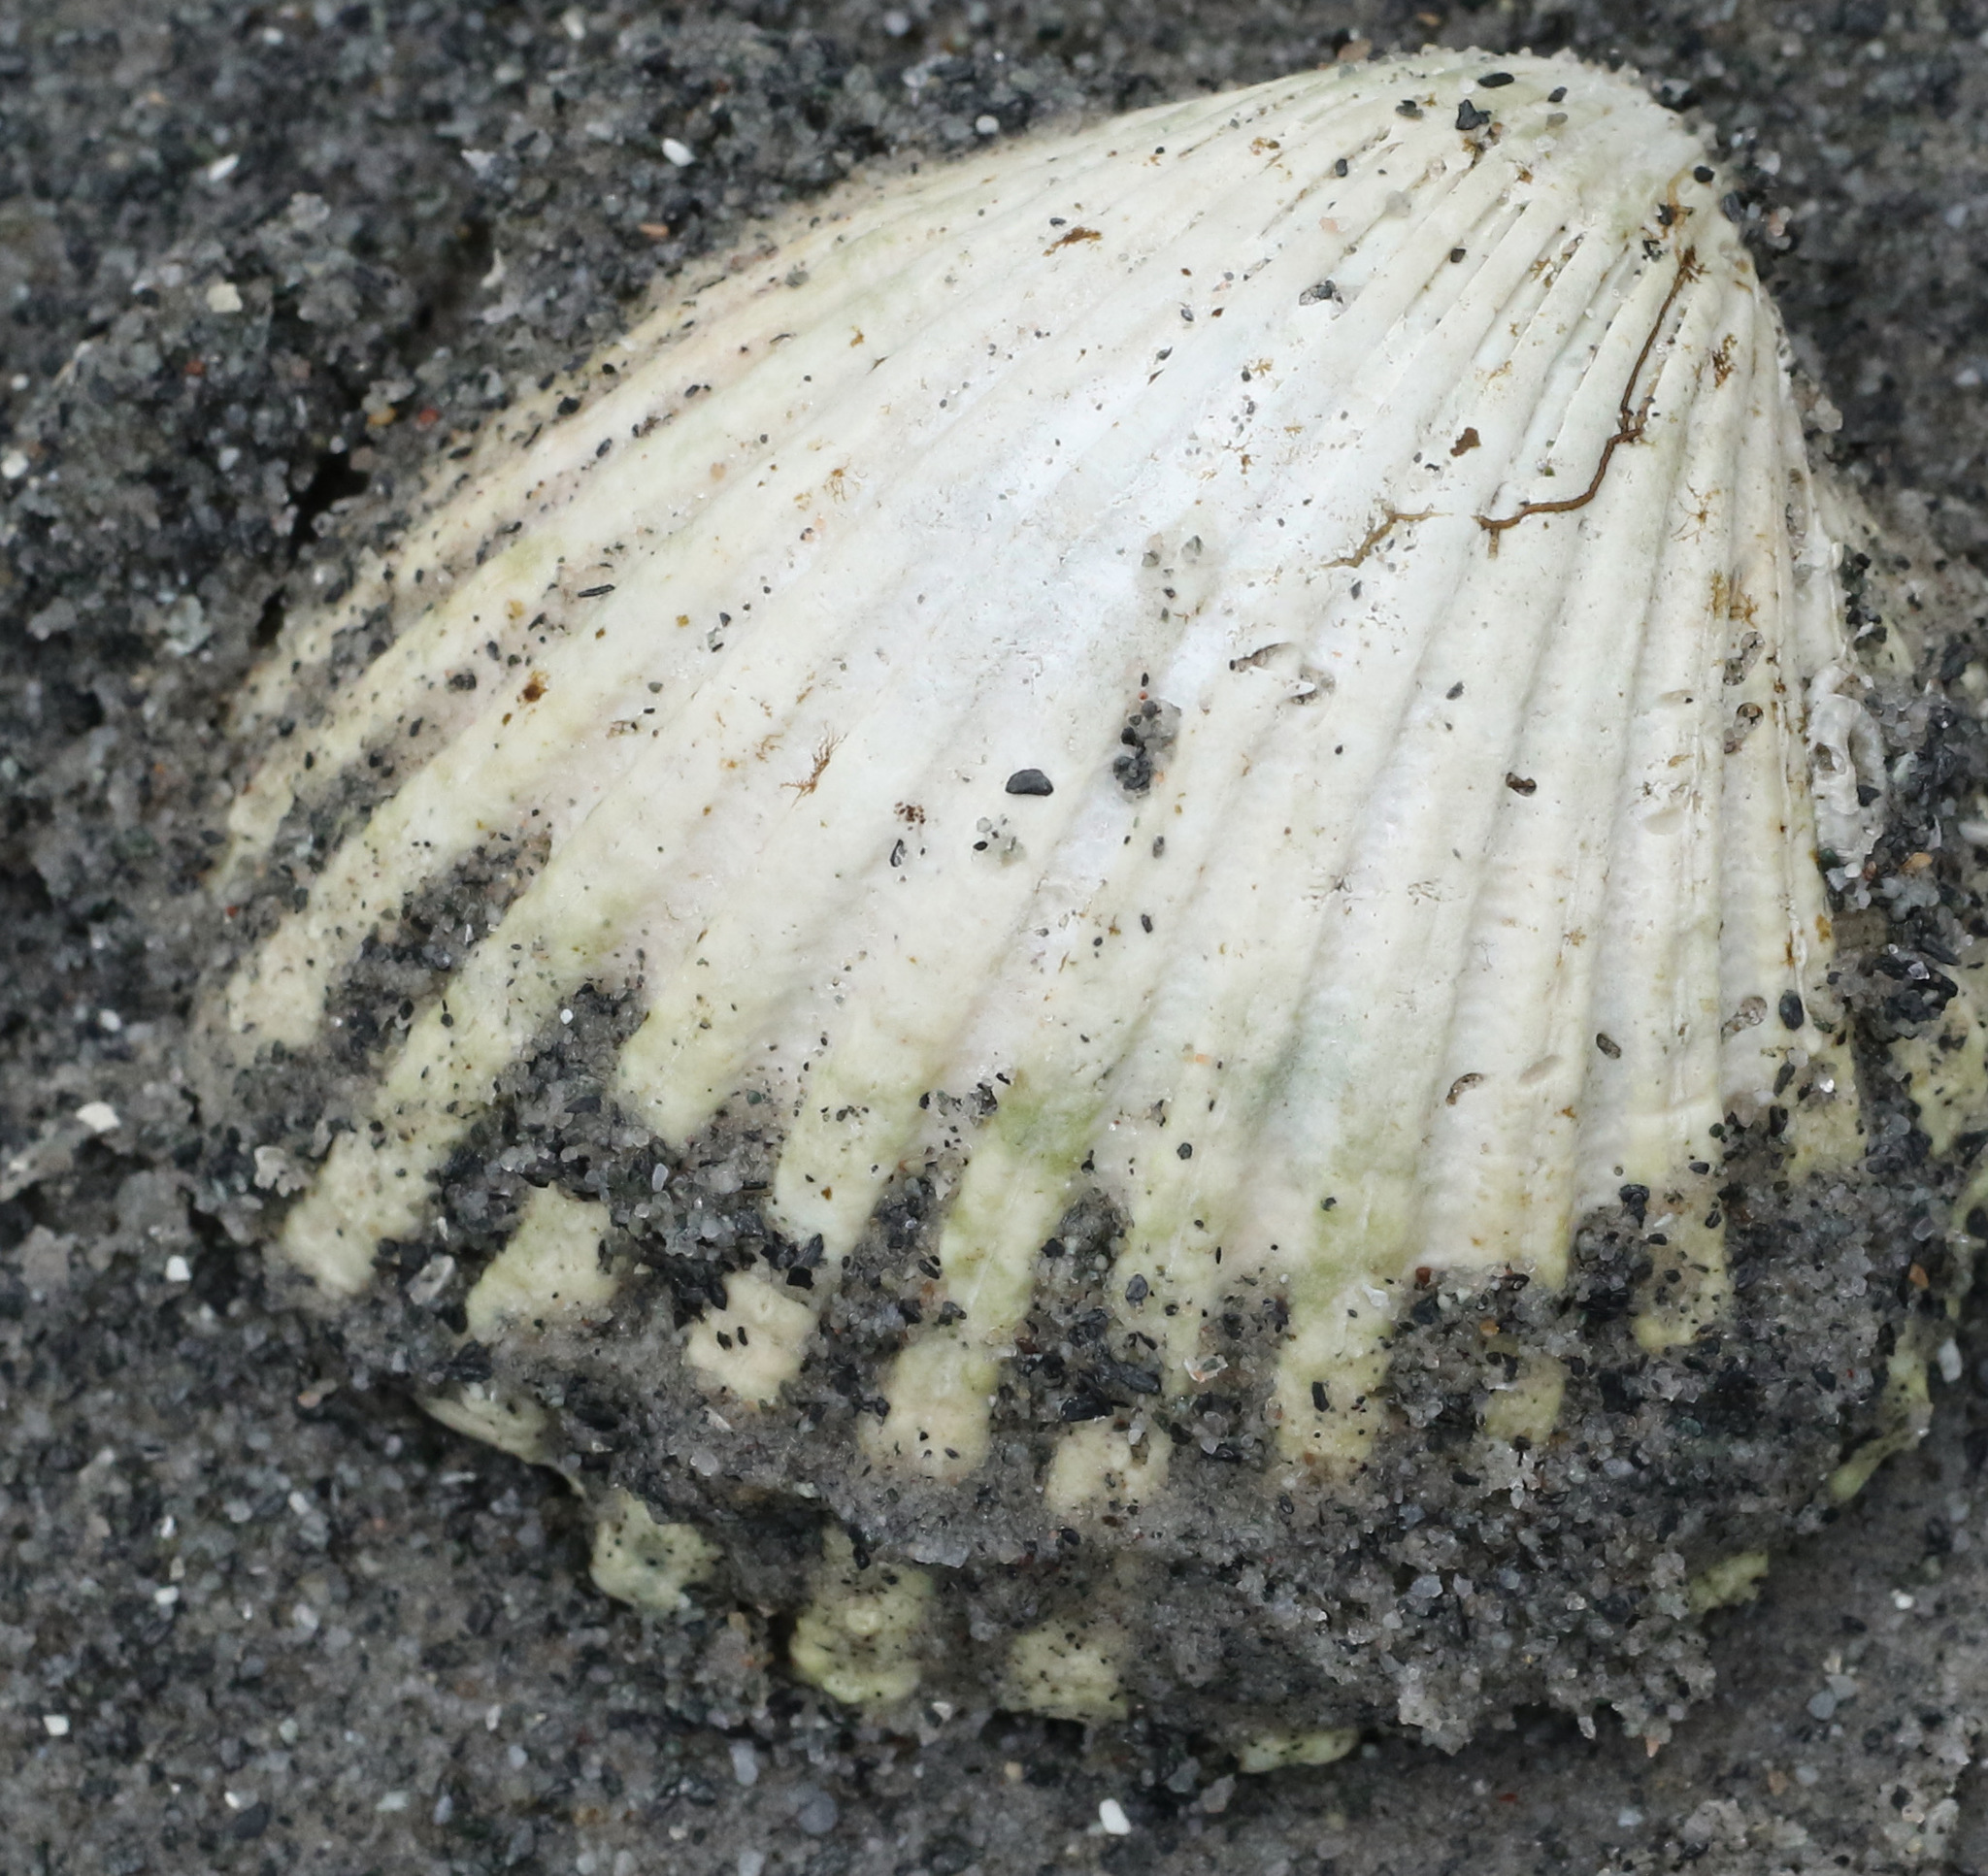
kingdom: Animalia
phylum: Mollusca
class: Bivalvia
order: Cardiida
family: Cardiidae
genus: Cerastoderma
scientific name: Cerastoderma edule
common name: Common cockle
